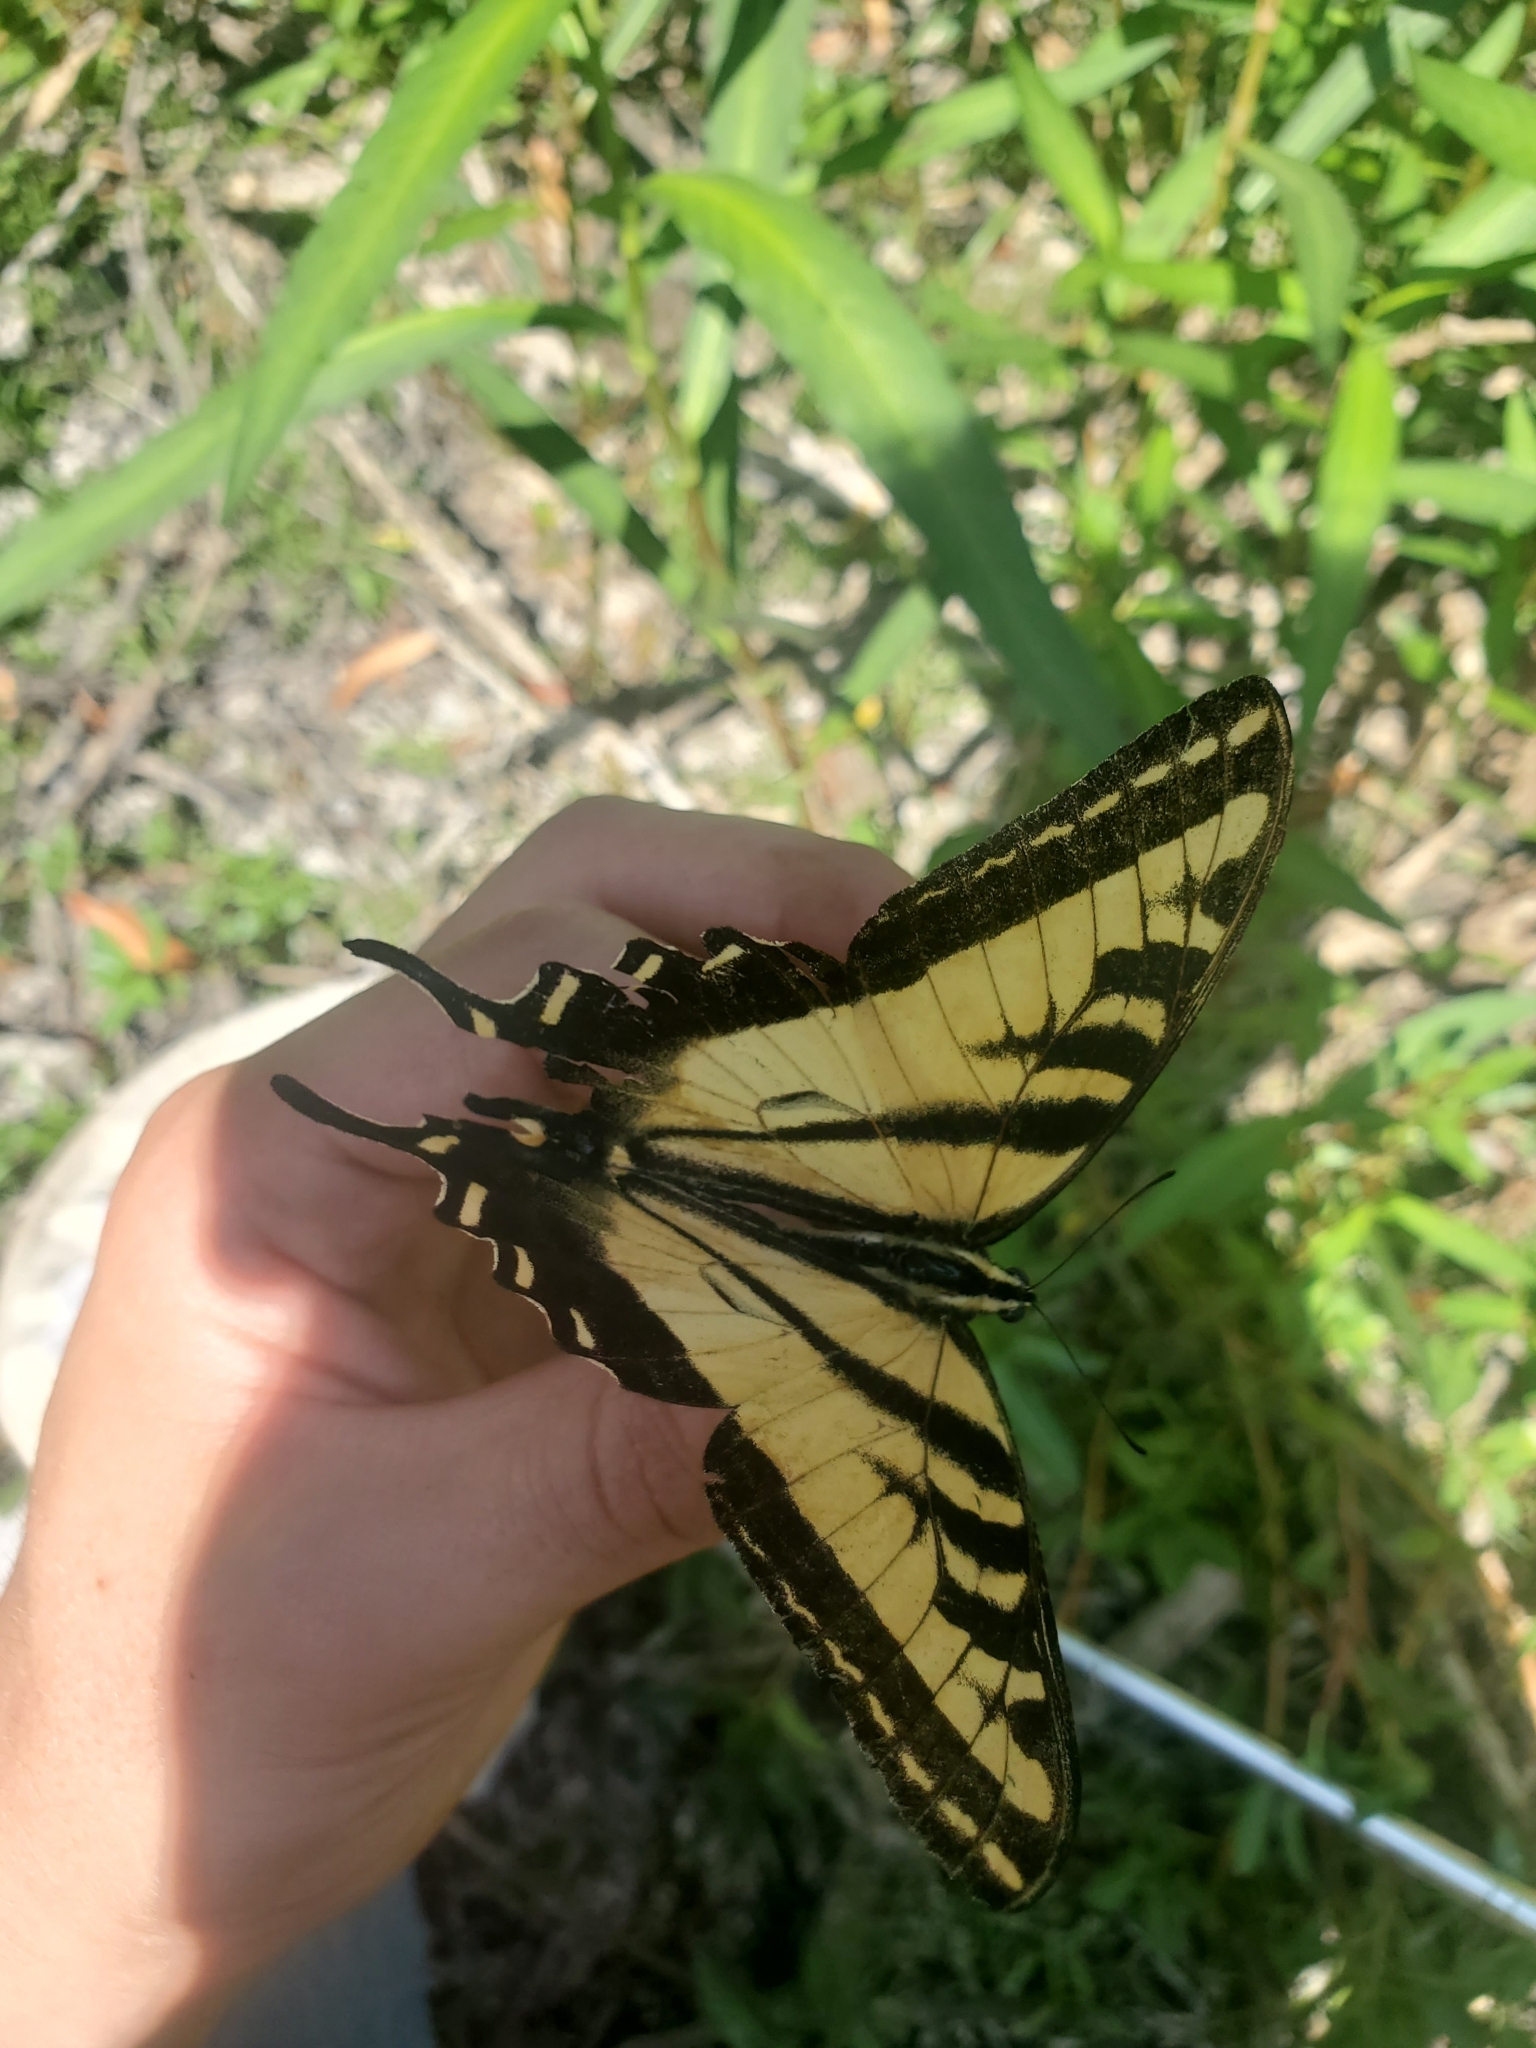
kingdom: Animalia
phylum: Arthropoda
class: Insecta
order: Lepidoptera
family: Papilionidae
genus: Papilio
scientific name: Papilio rutulus
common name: Western tiger swallowtail
